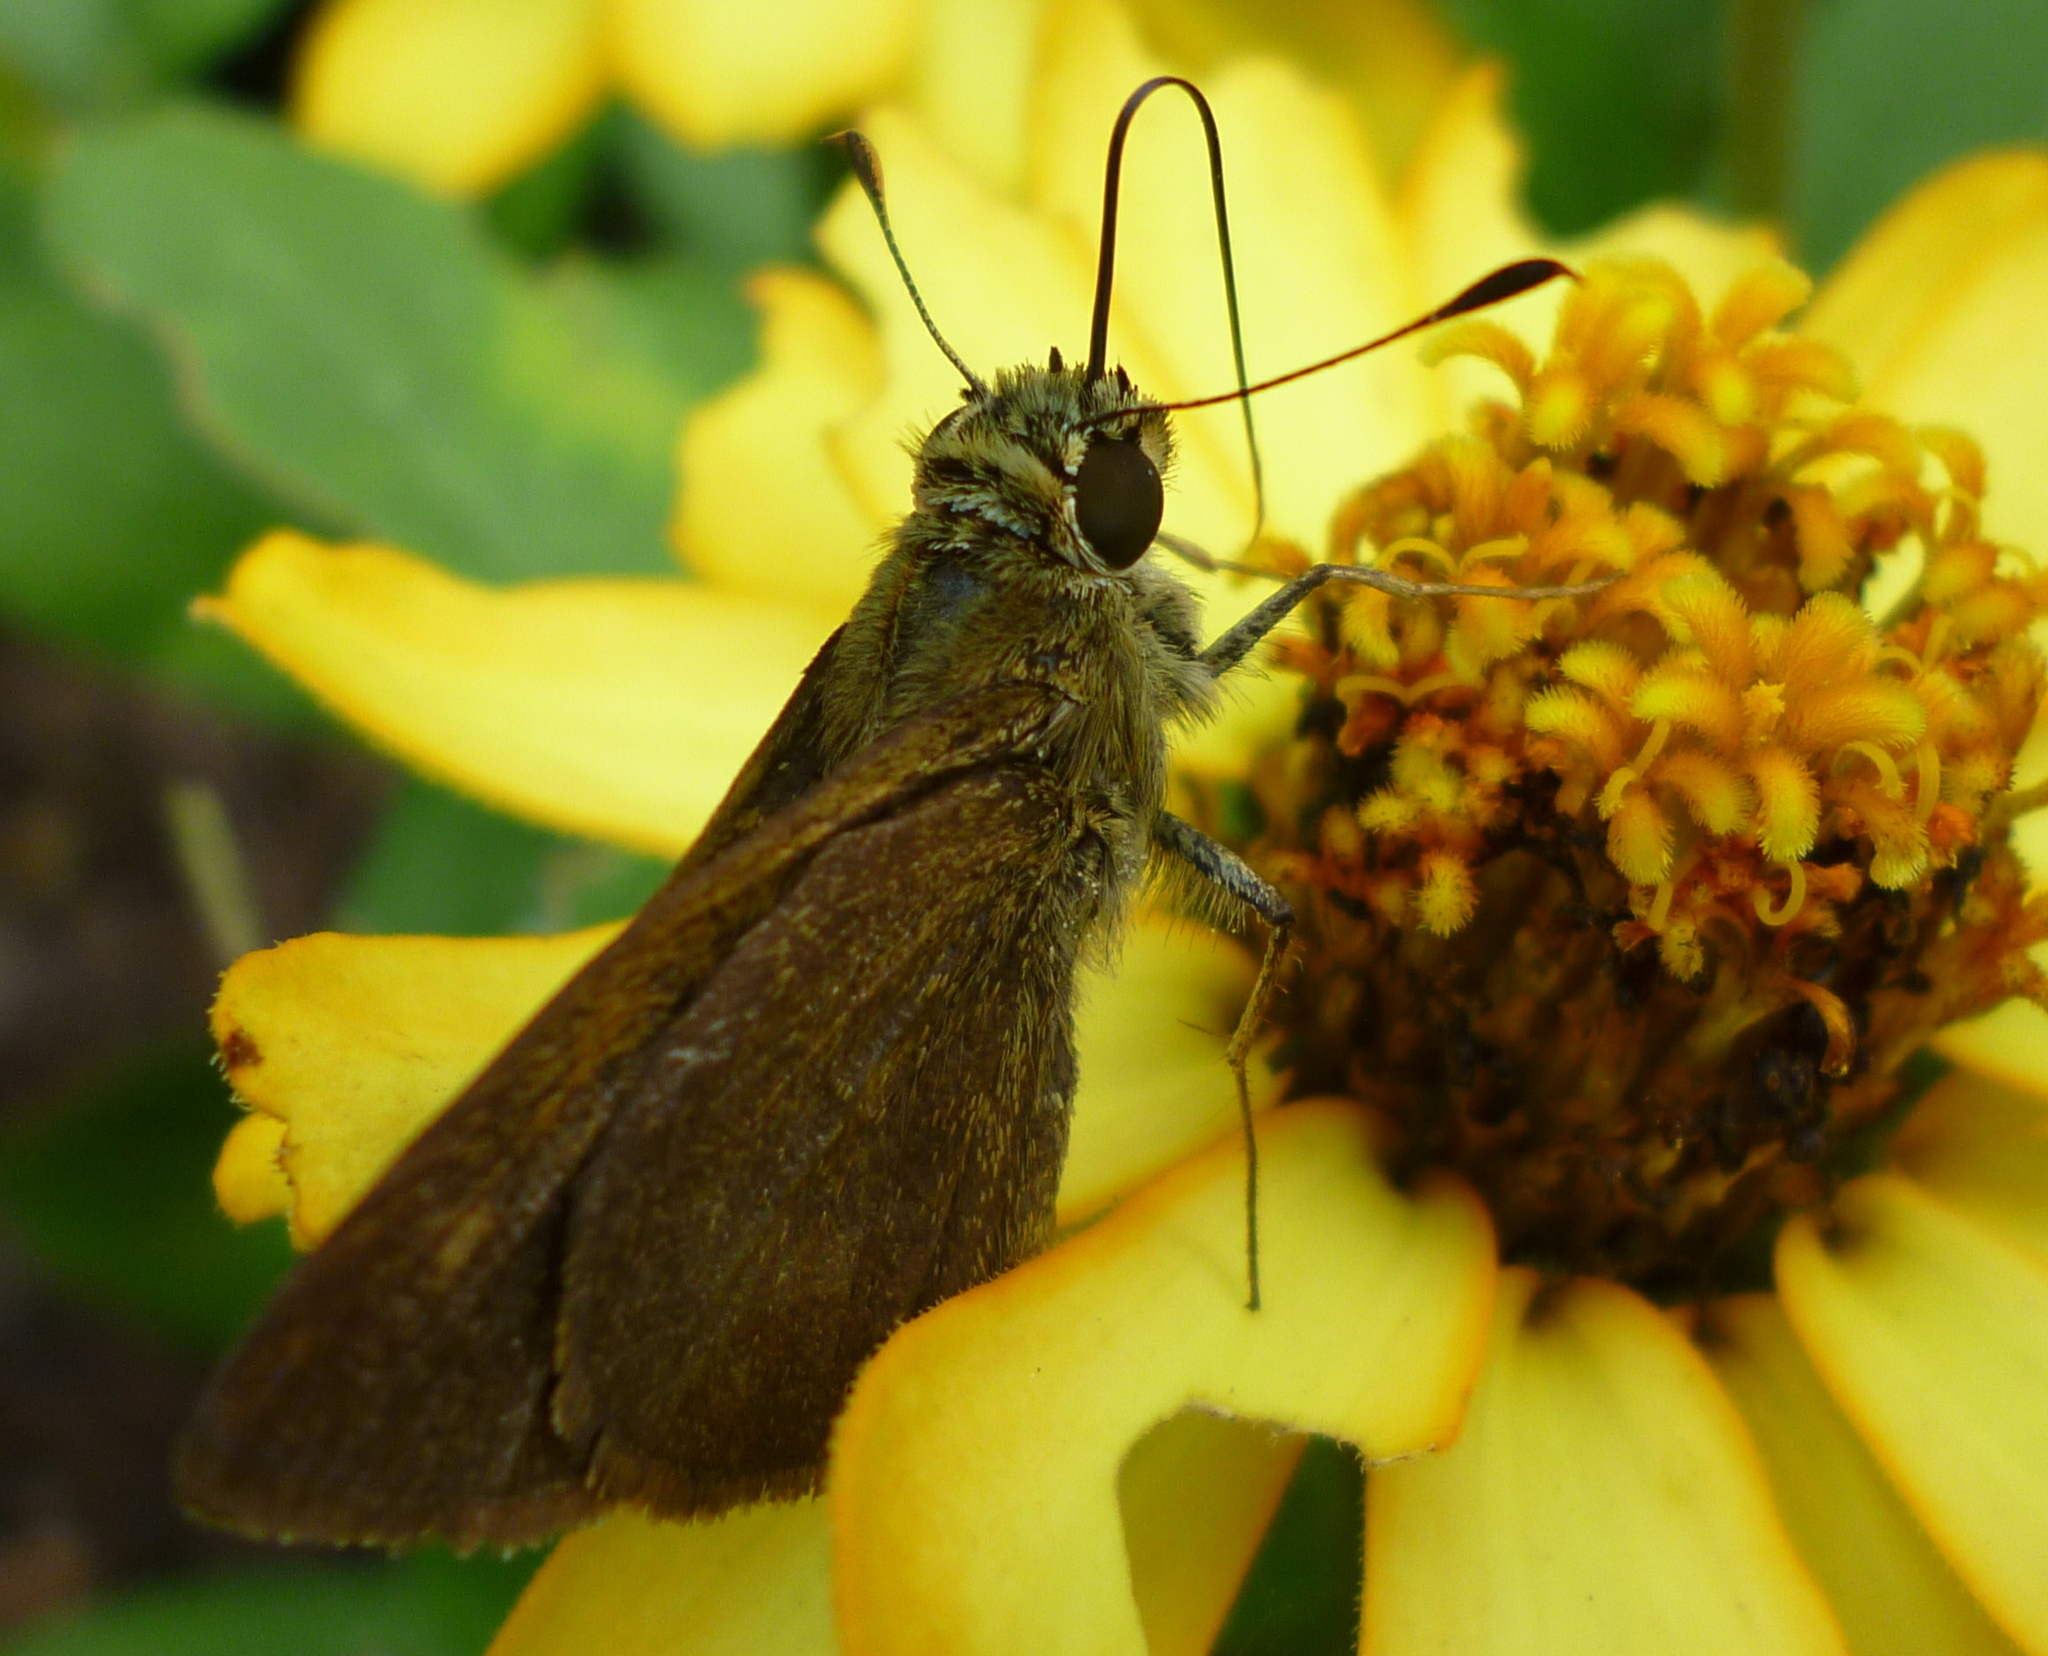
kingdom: Animalia
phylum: Arthropoda
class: Insecta
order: Lepidoptera
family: Hesperiidae
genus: Polites
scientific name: Polites origenes
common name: Crossline skipper
